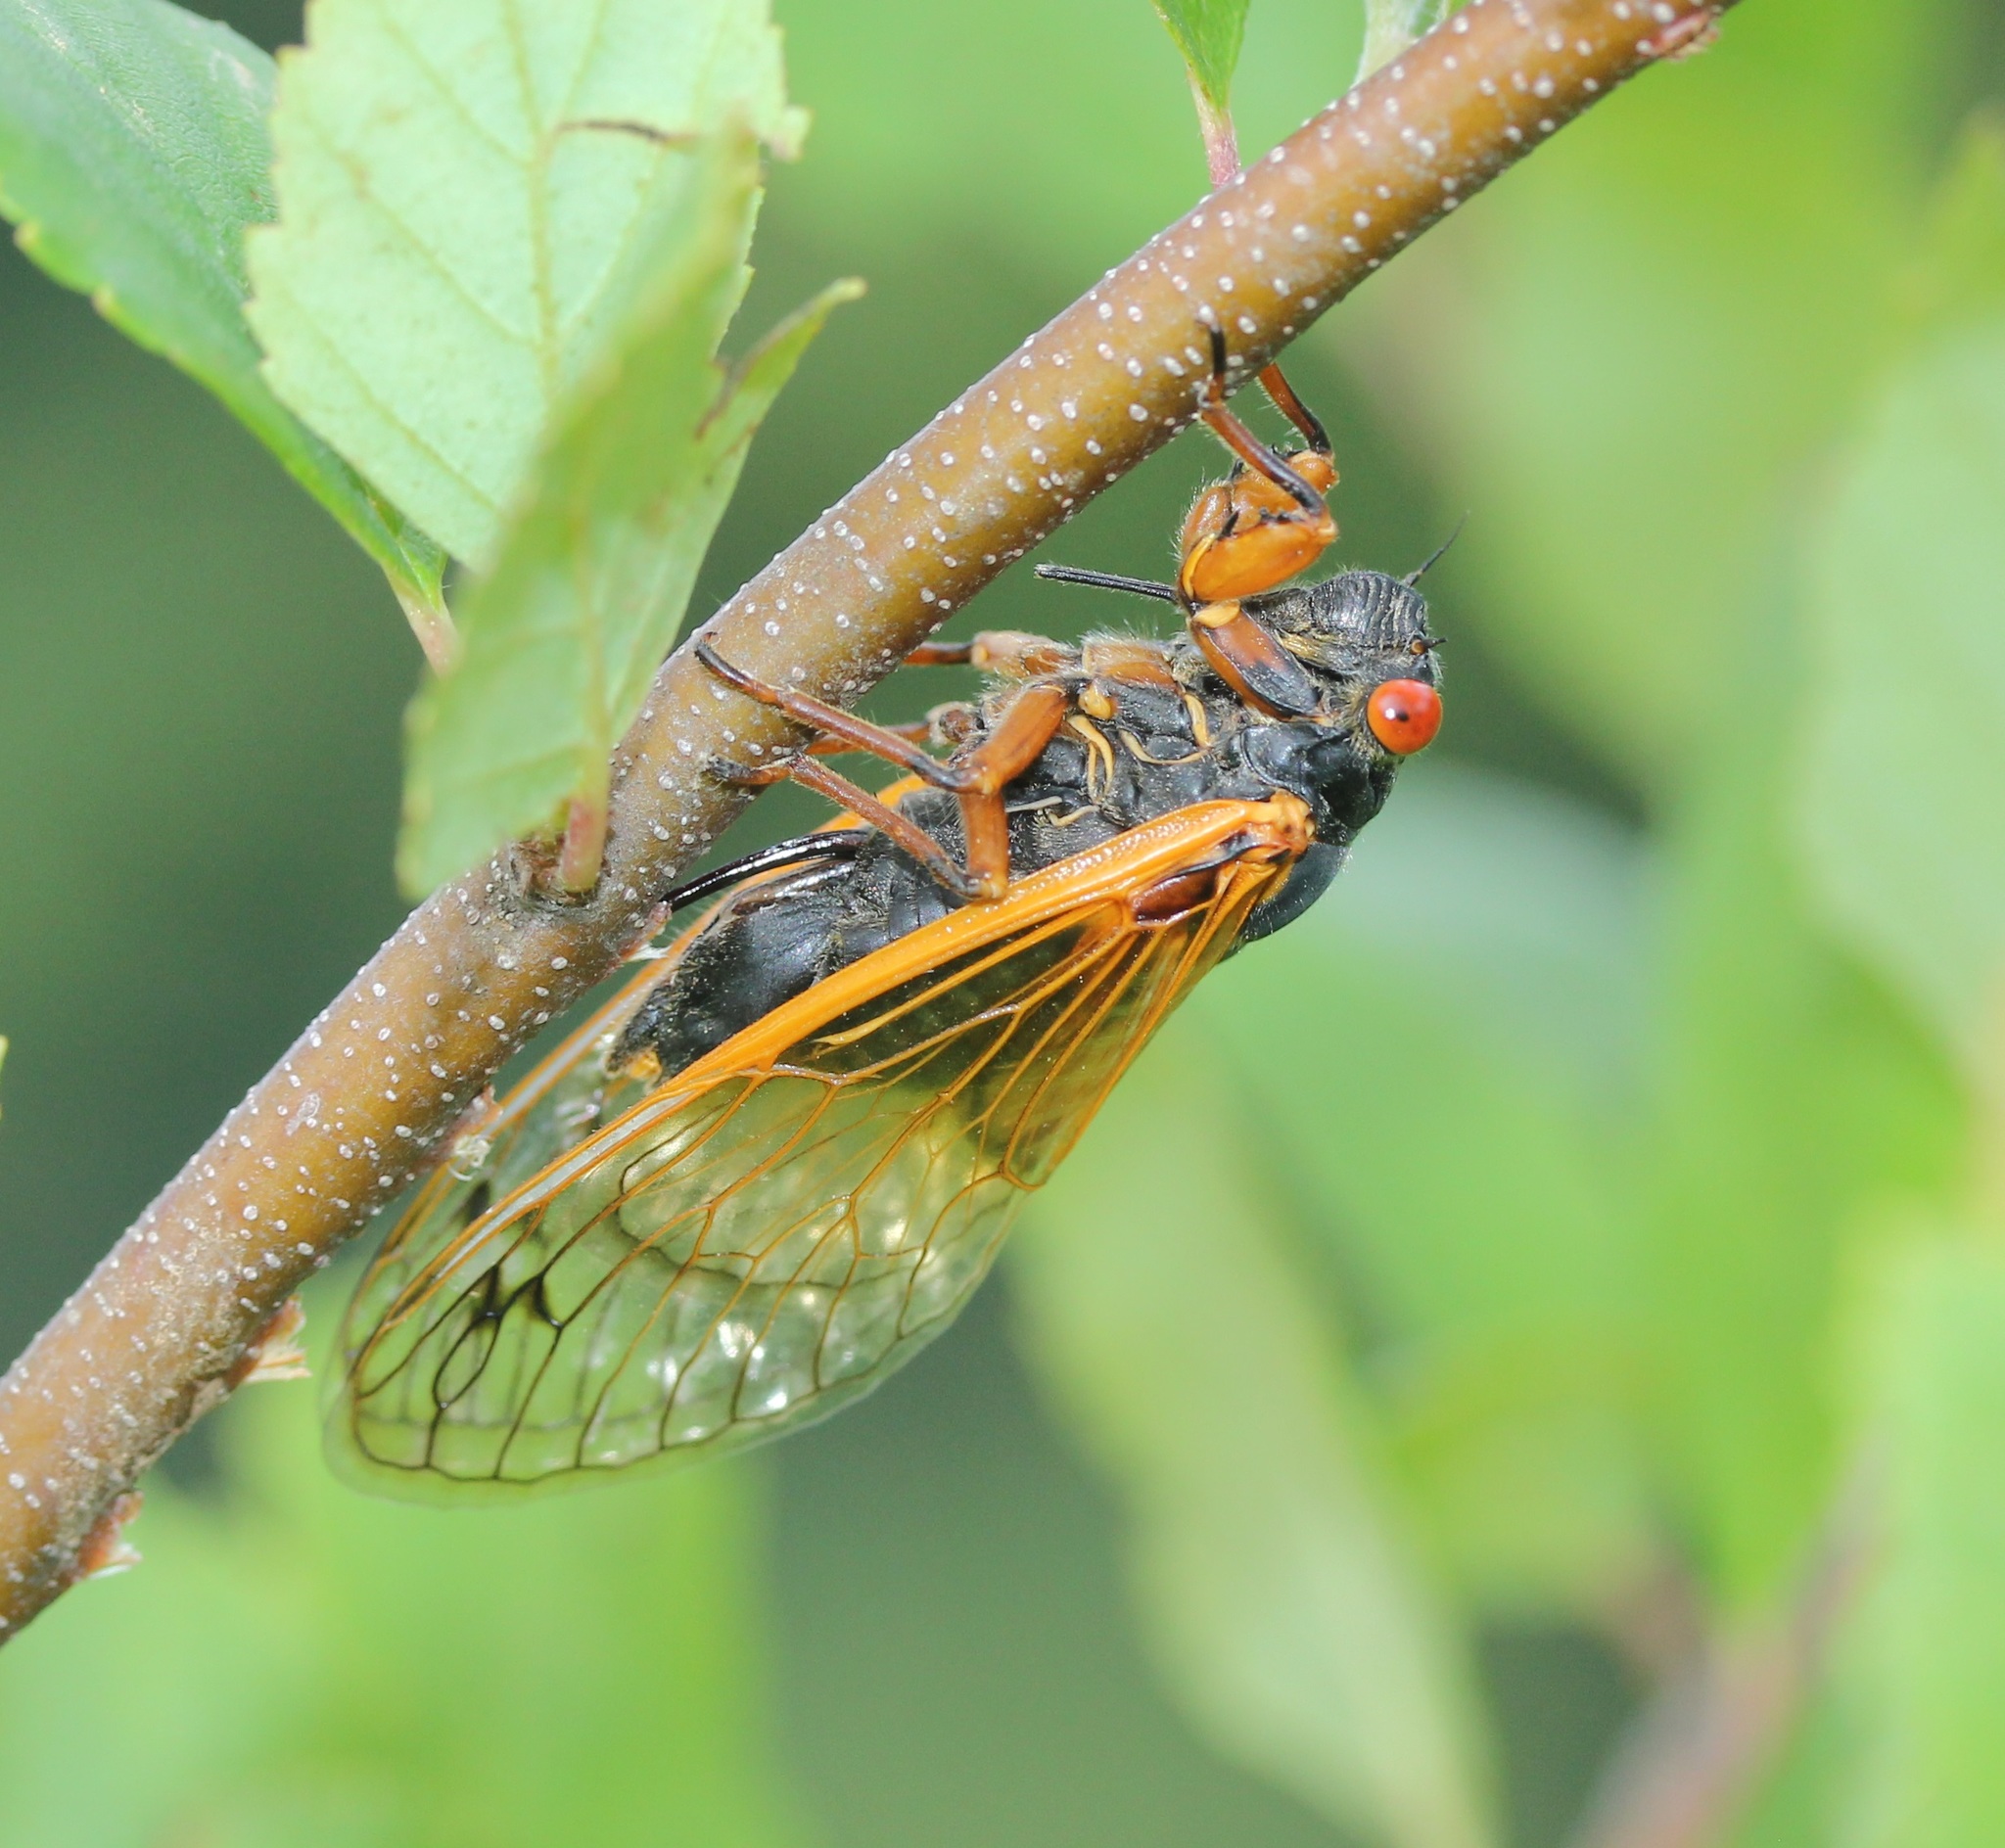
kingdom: Animalia
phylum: Arthropoda
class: Insecta
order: Hemiptera
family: Cicadidae
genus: Magicicada
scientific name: Magicicada cassini
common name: Cassin's 17-year cicada
